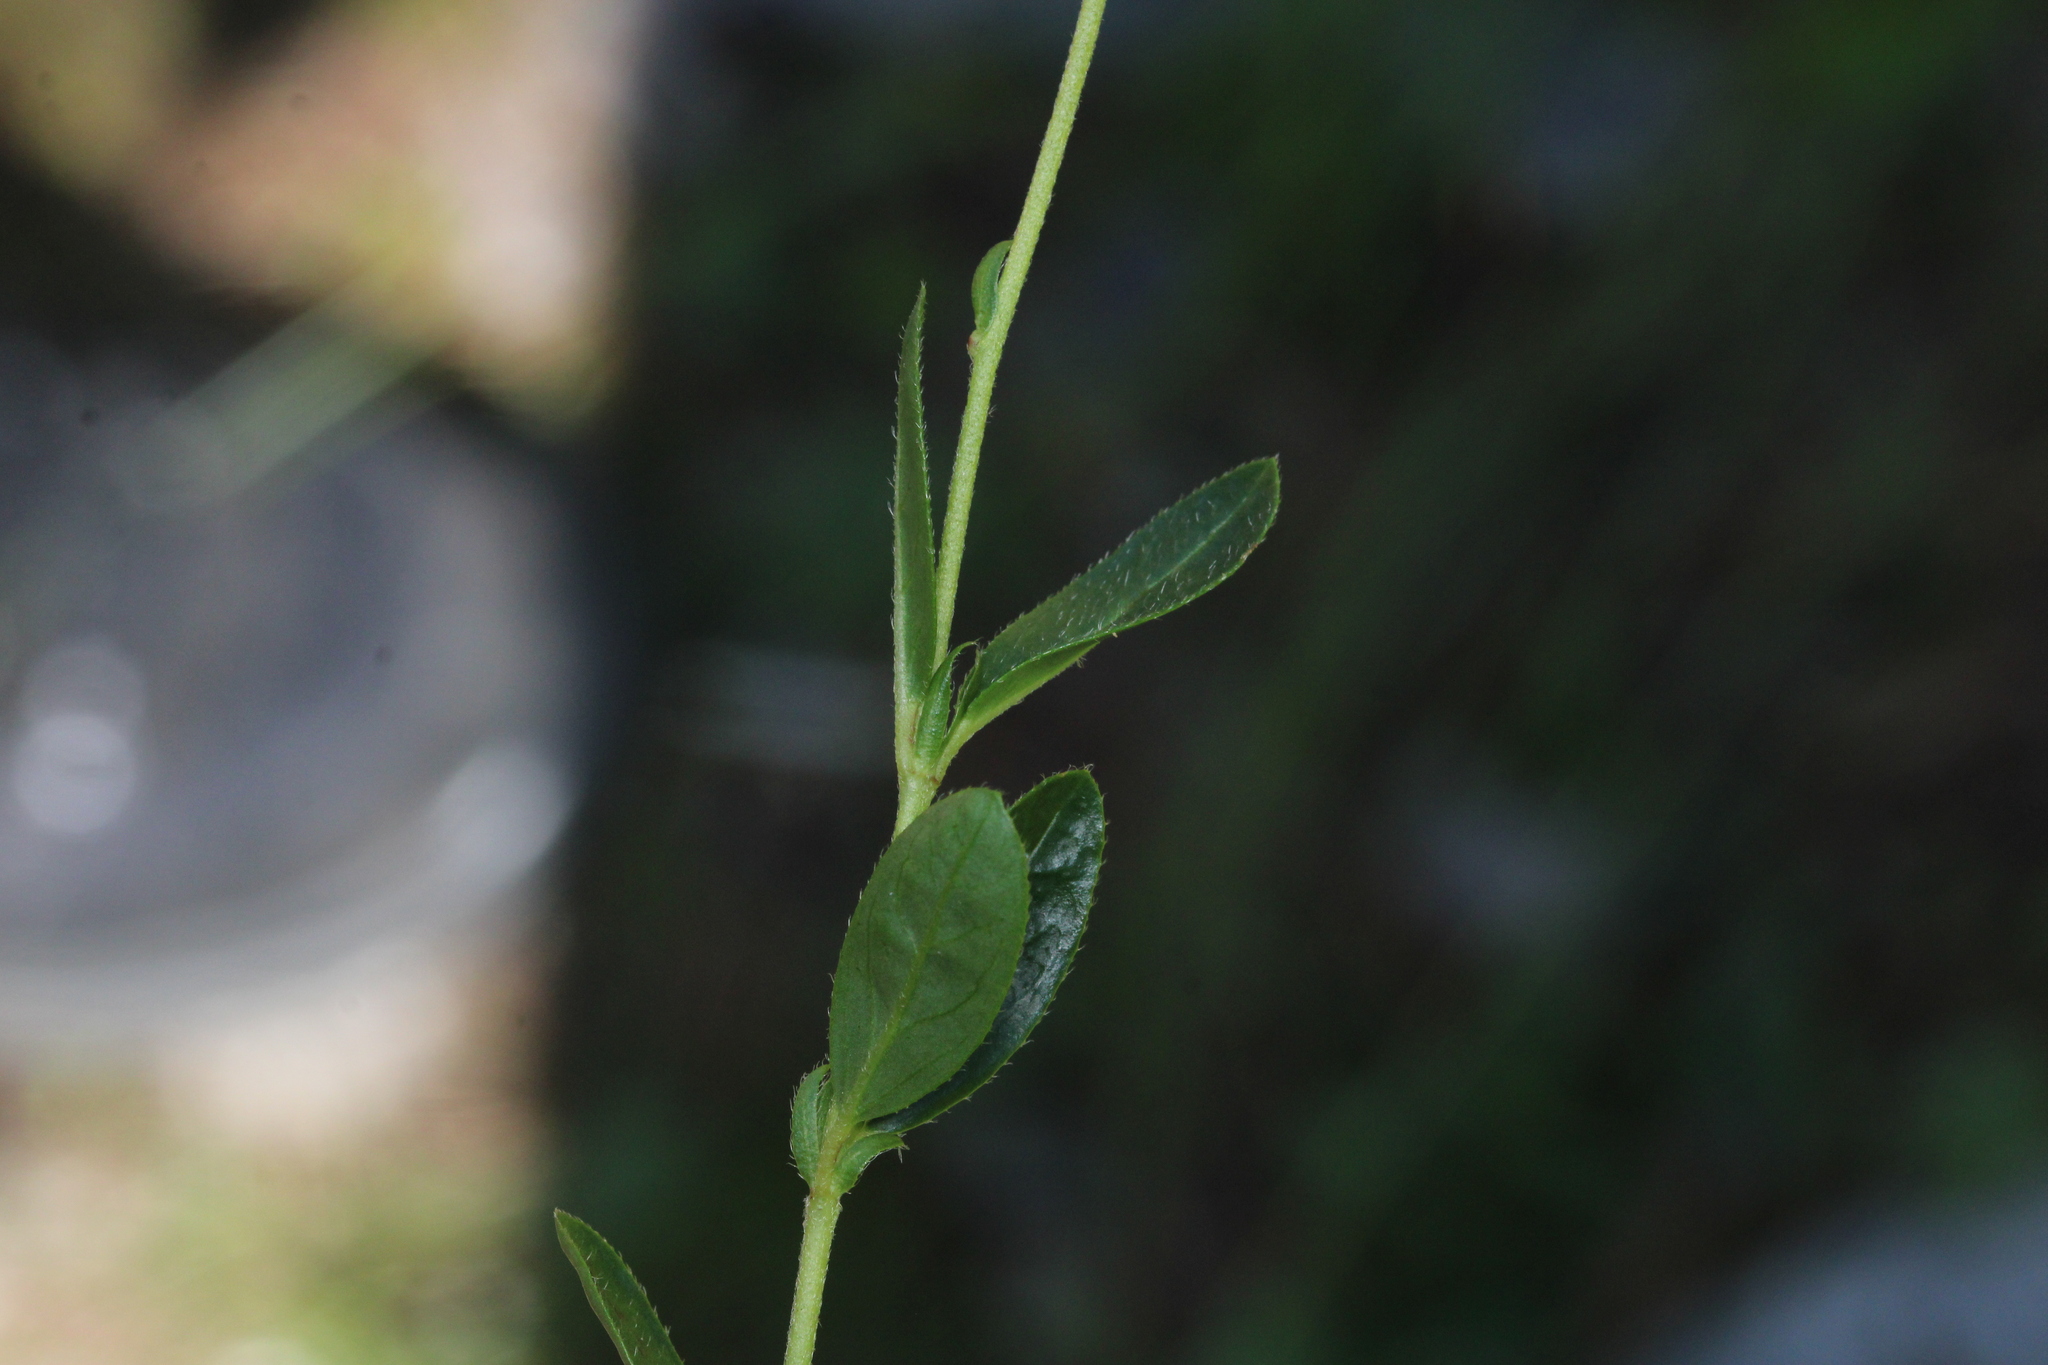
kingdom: Plantae
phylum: Tracheophyta
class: Magnoliopsida
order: Malvales
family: Cistaceae
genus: Helianthemum
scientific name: Helianthemum nummularium
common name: Common rock-rose
